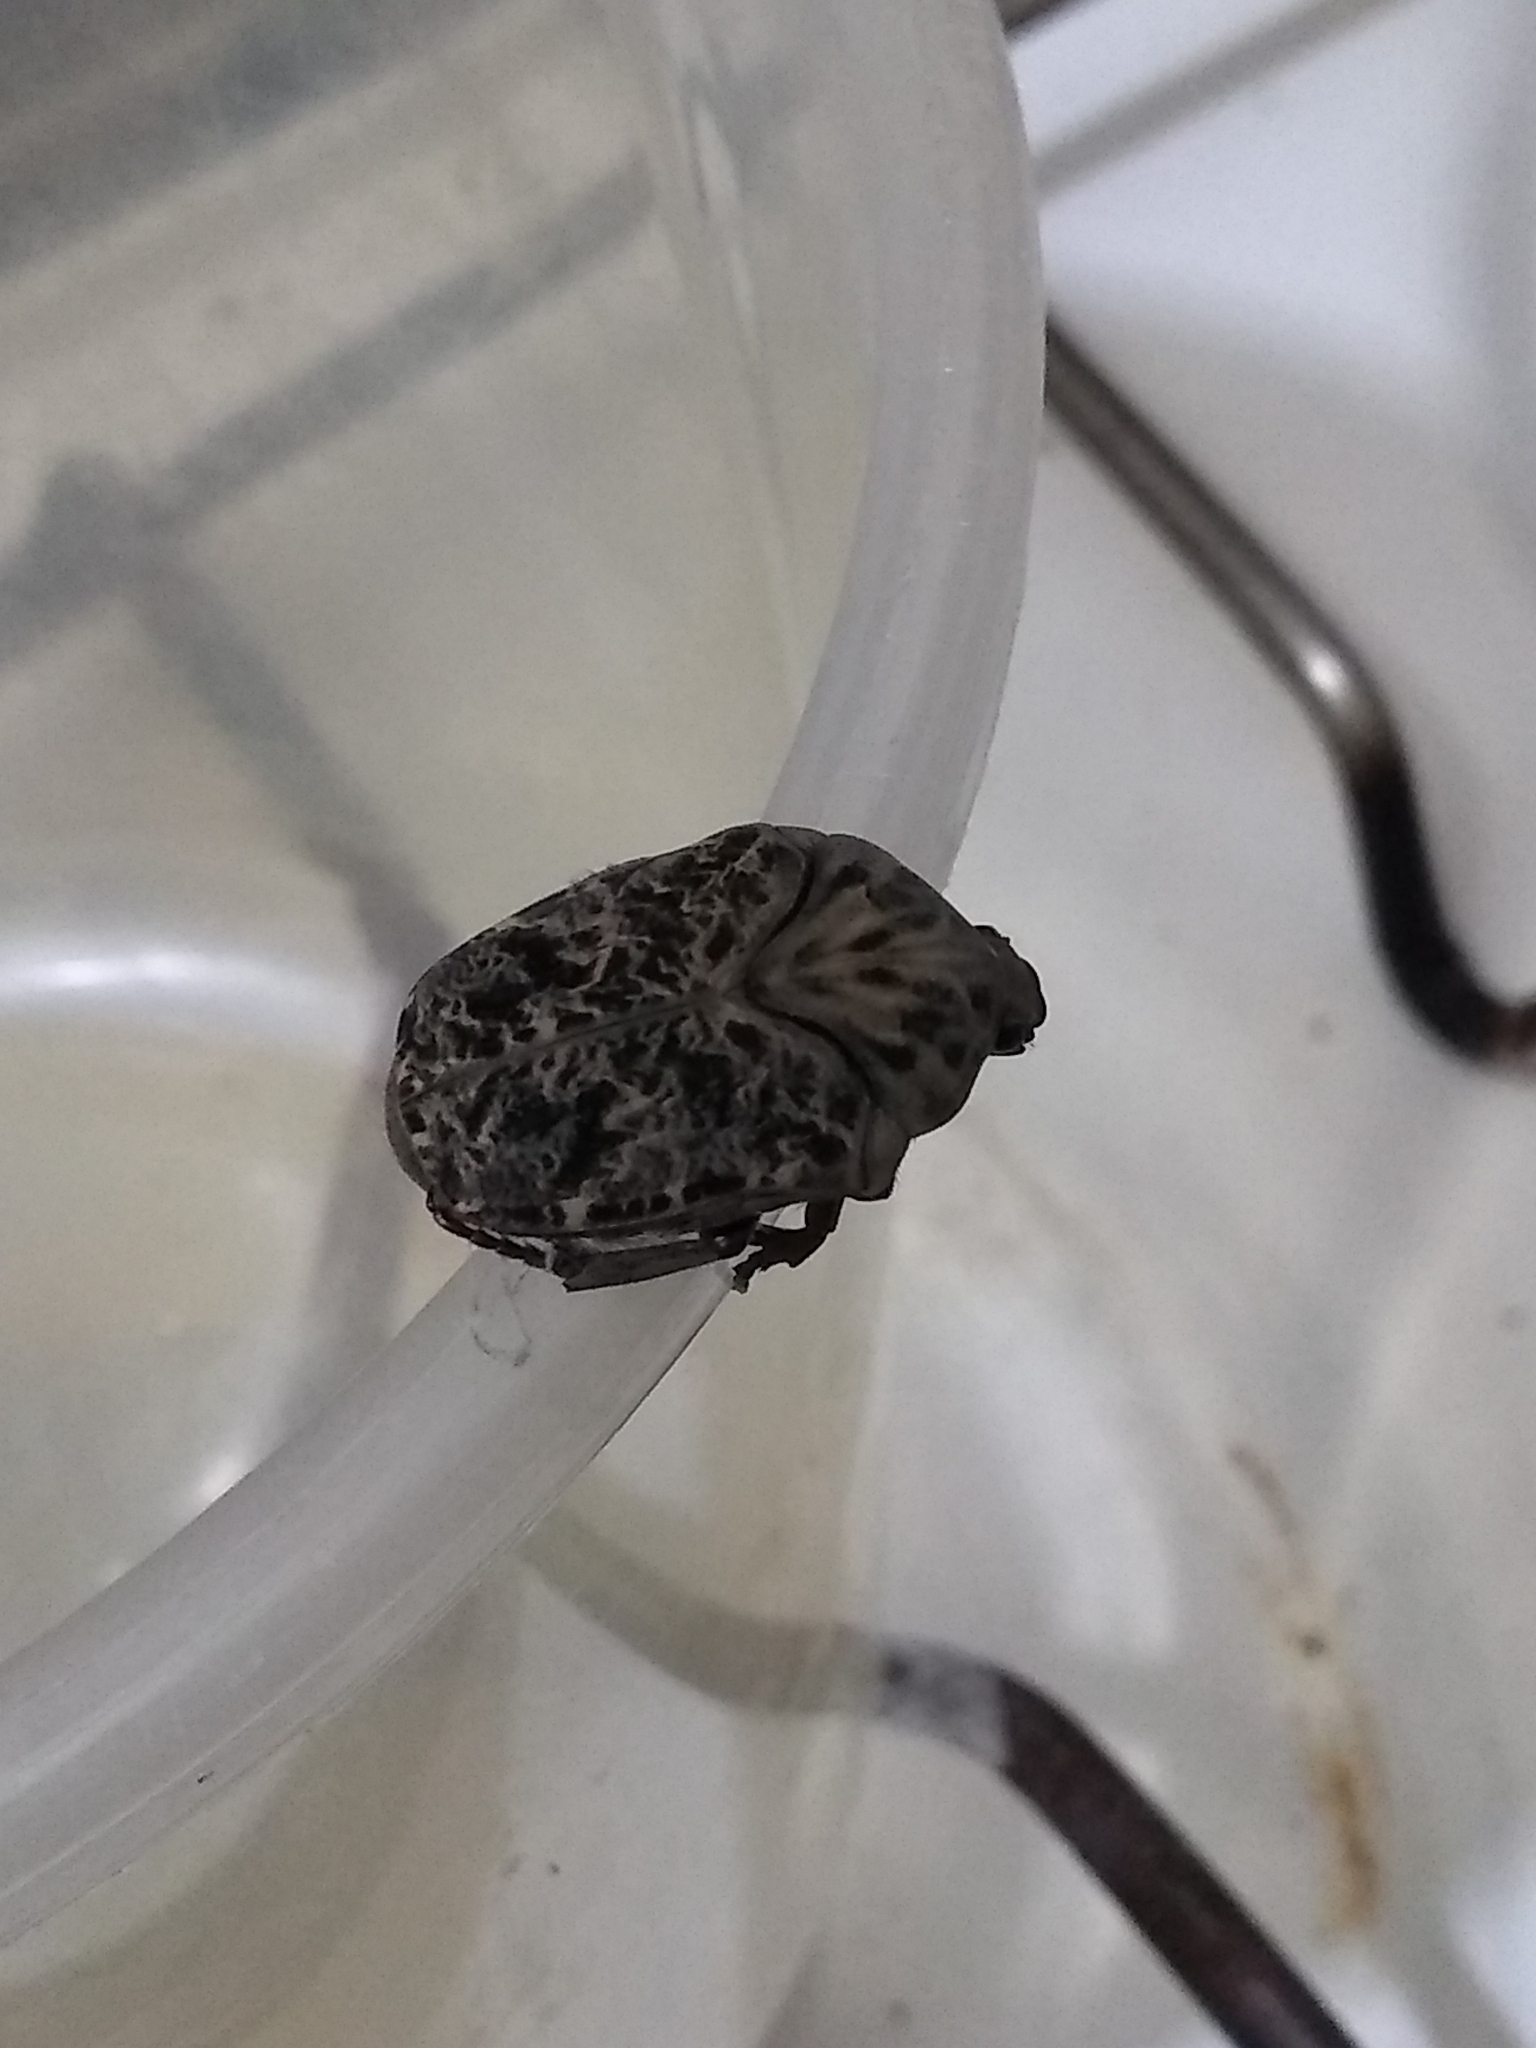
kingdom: Animalia
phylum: Arthropoda
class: Insecta
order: Coleoptera
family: Scarabaeidae
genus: Gymnetis
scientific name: Gymnetis chalcipes
